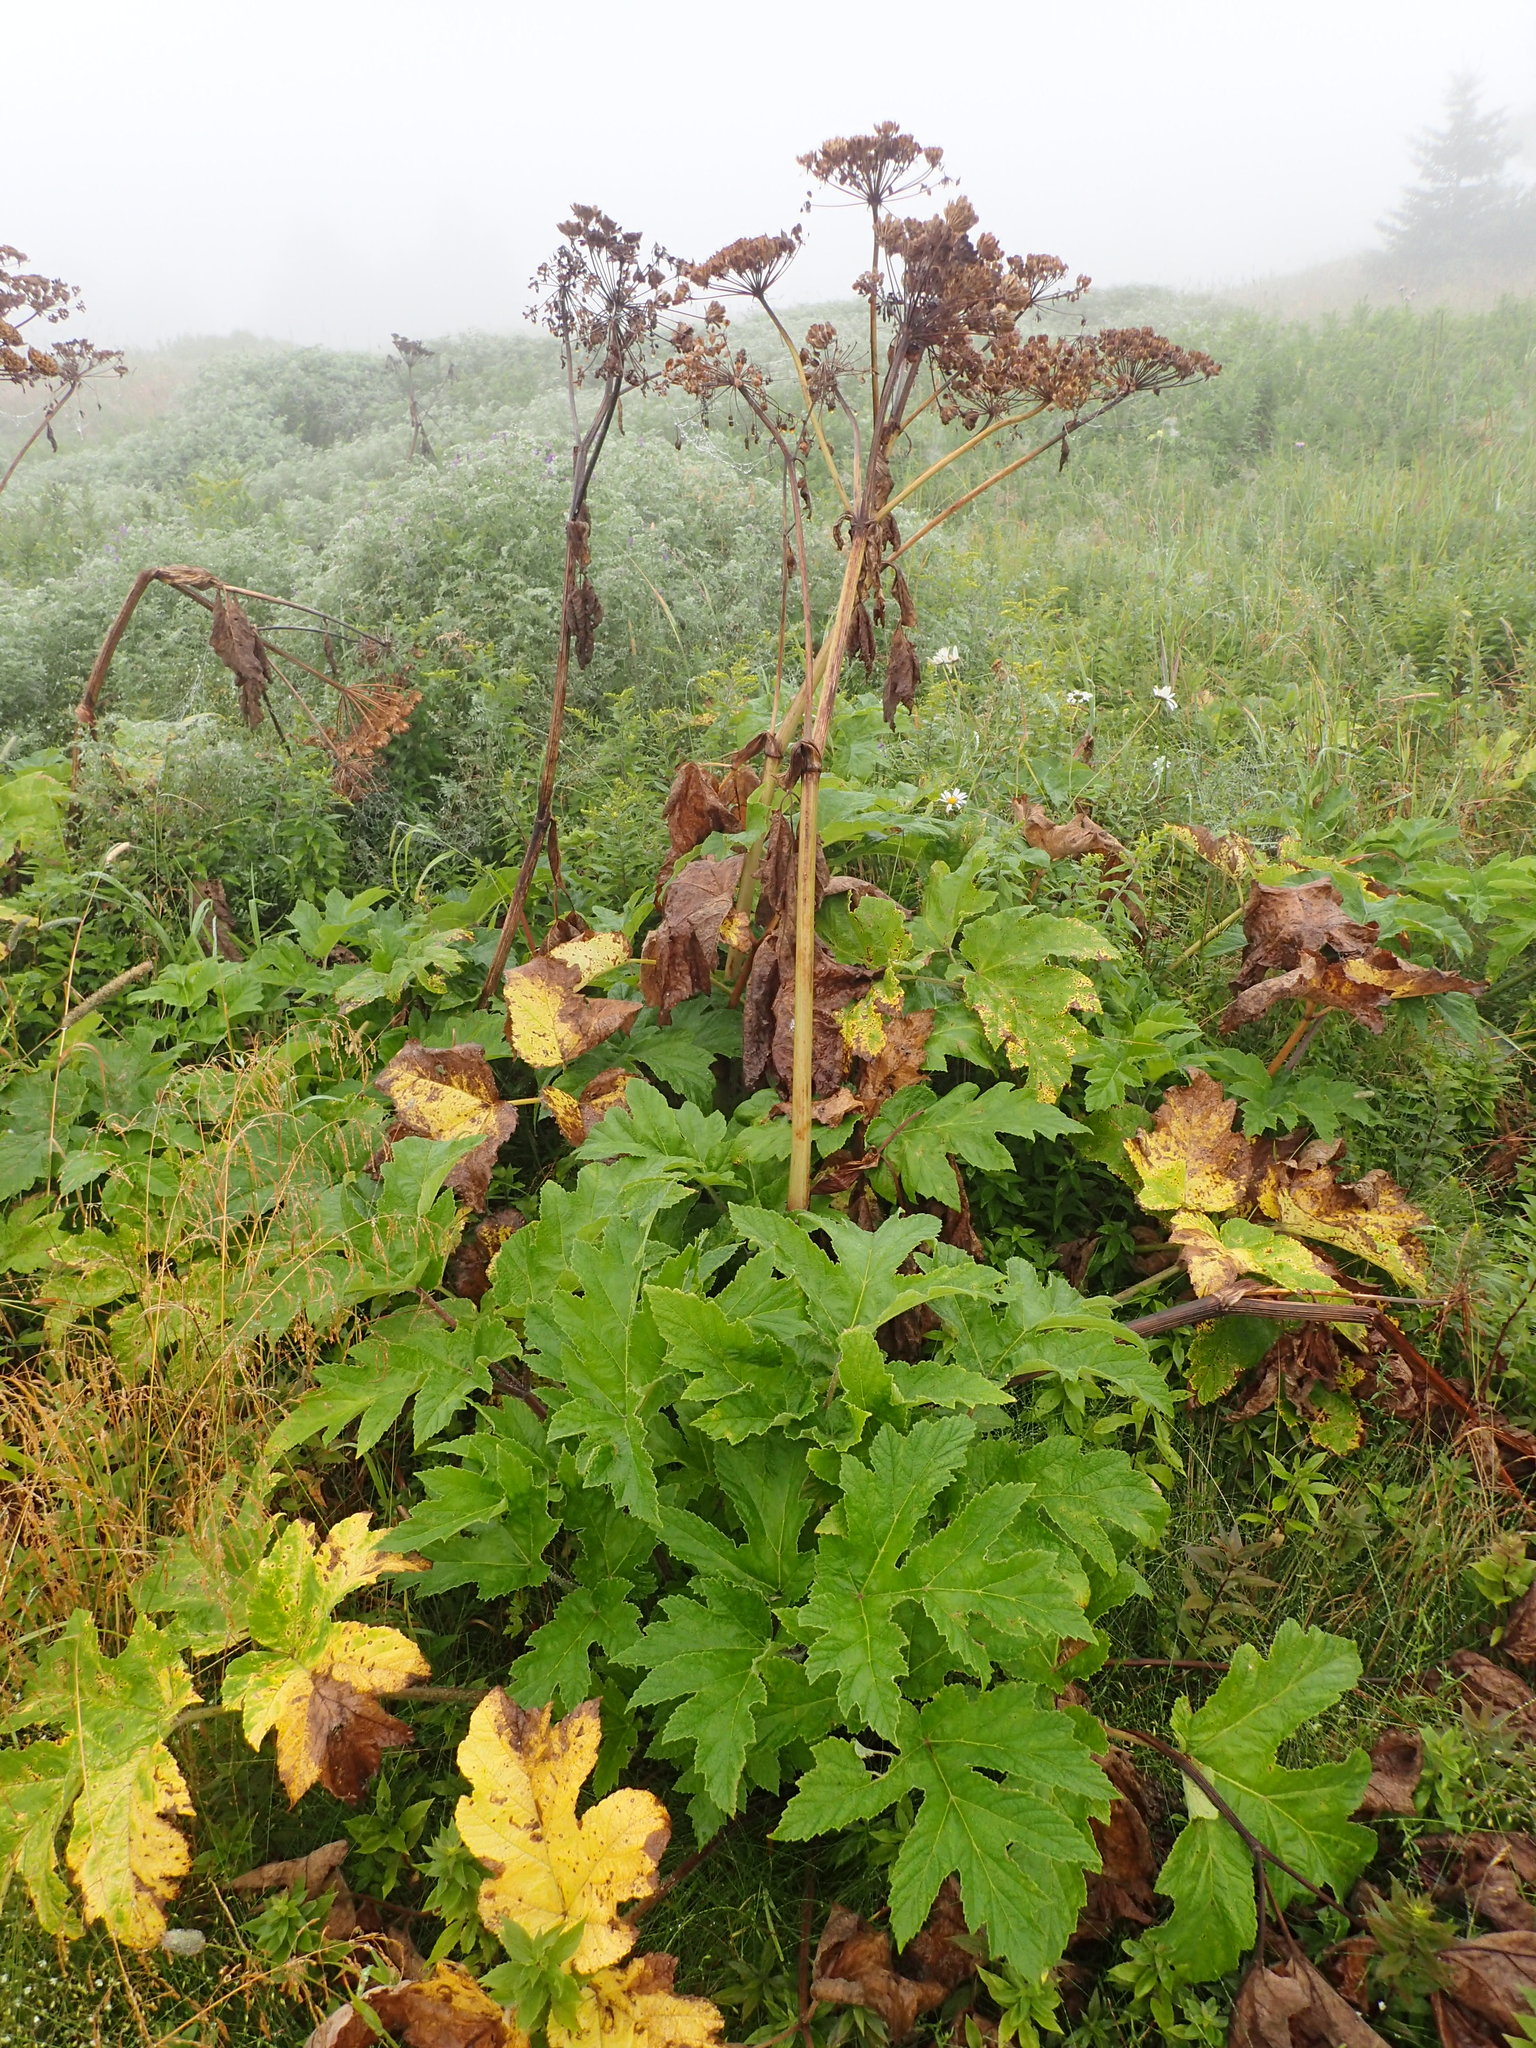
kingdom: Plantae
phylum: Tracheophyta
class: Magnoliopsida
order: Apiales
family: Apiaceae
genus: Heracleum
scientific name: Heracleum maximum
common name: American cow parsnip
